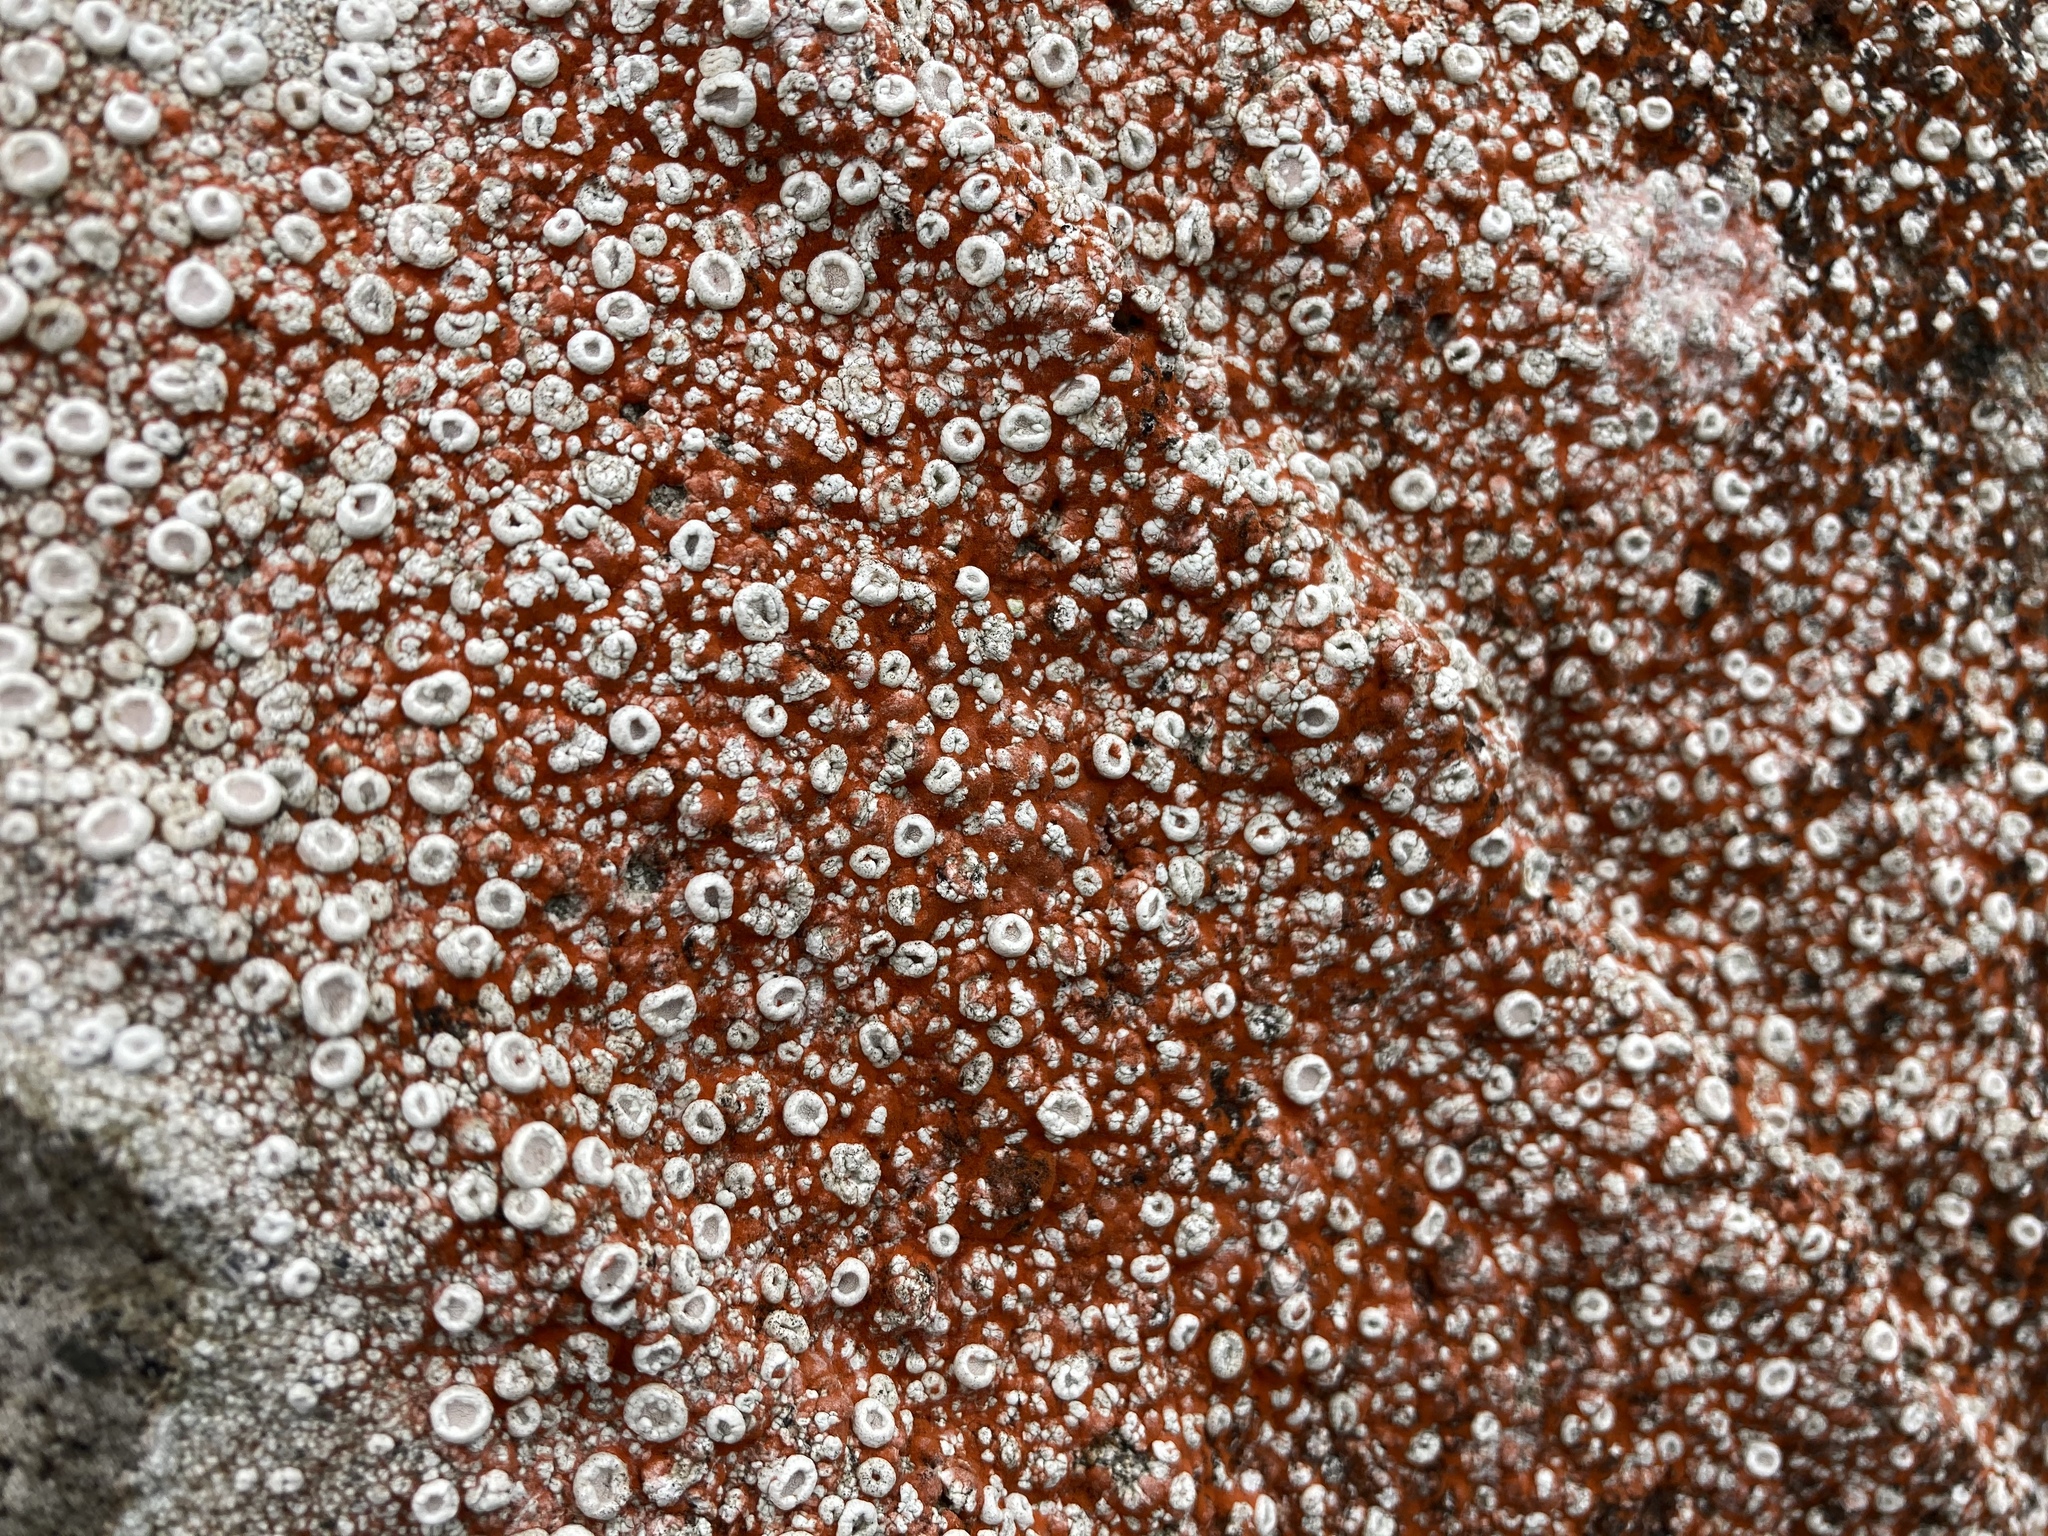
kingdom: Fungi
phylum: Ascomycota
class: Lecanoromycetes
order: Pertusariales
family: Ochrolechiaceae
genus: Ochrolechia
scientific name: Ochrolechia parella
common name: Crab's eye lichen
